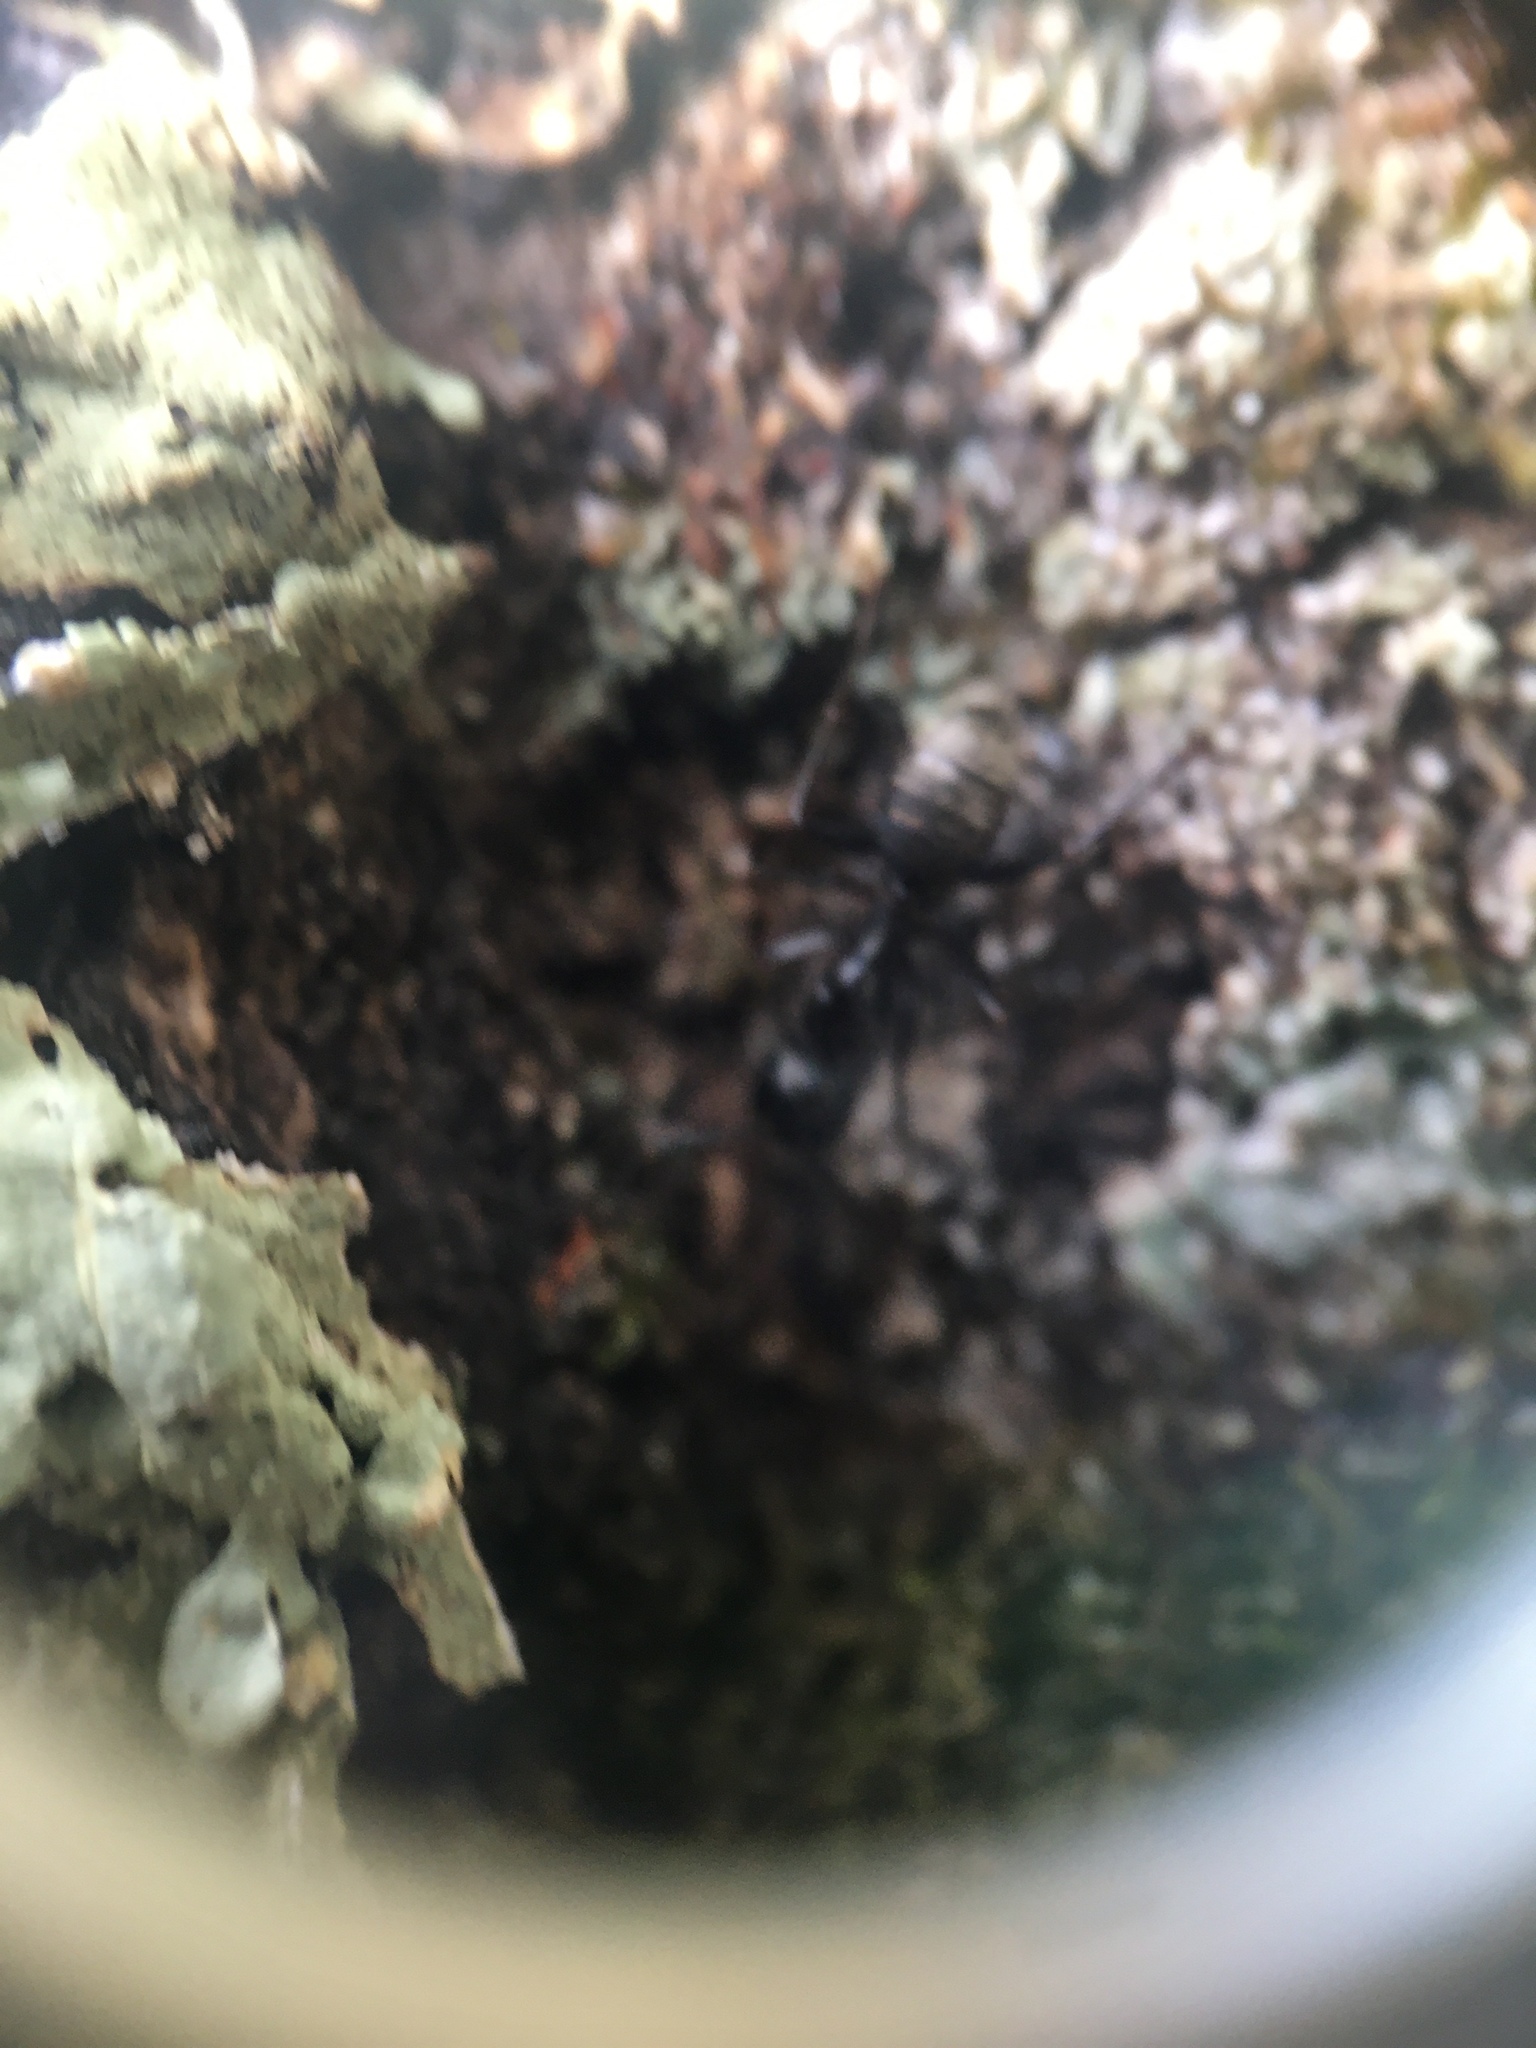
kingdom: Animalia
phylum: Arthropoda
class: Insecta
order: Hymenoptera
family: Formicidae
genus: Camponotus
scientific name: Camponotus pennsylvanicus
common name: Black carpenter ant
